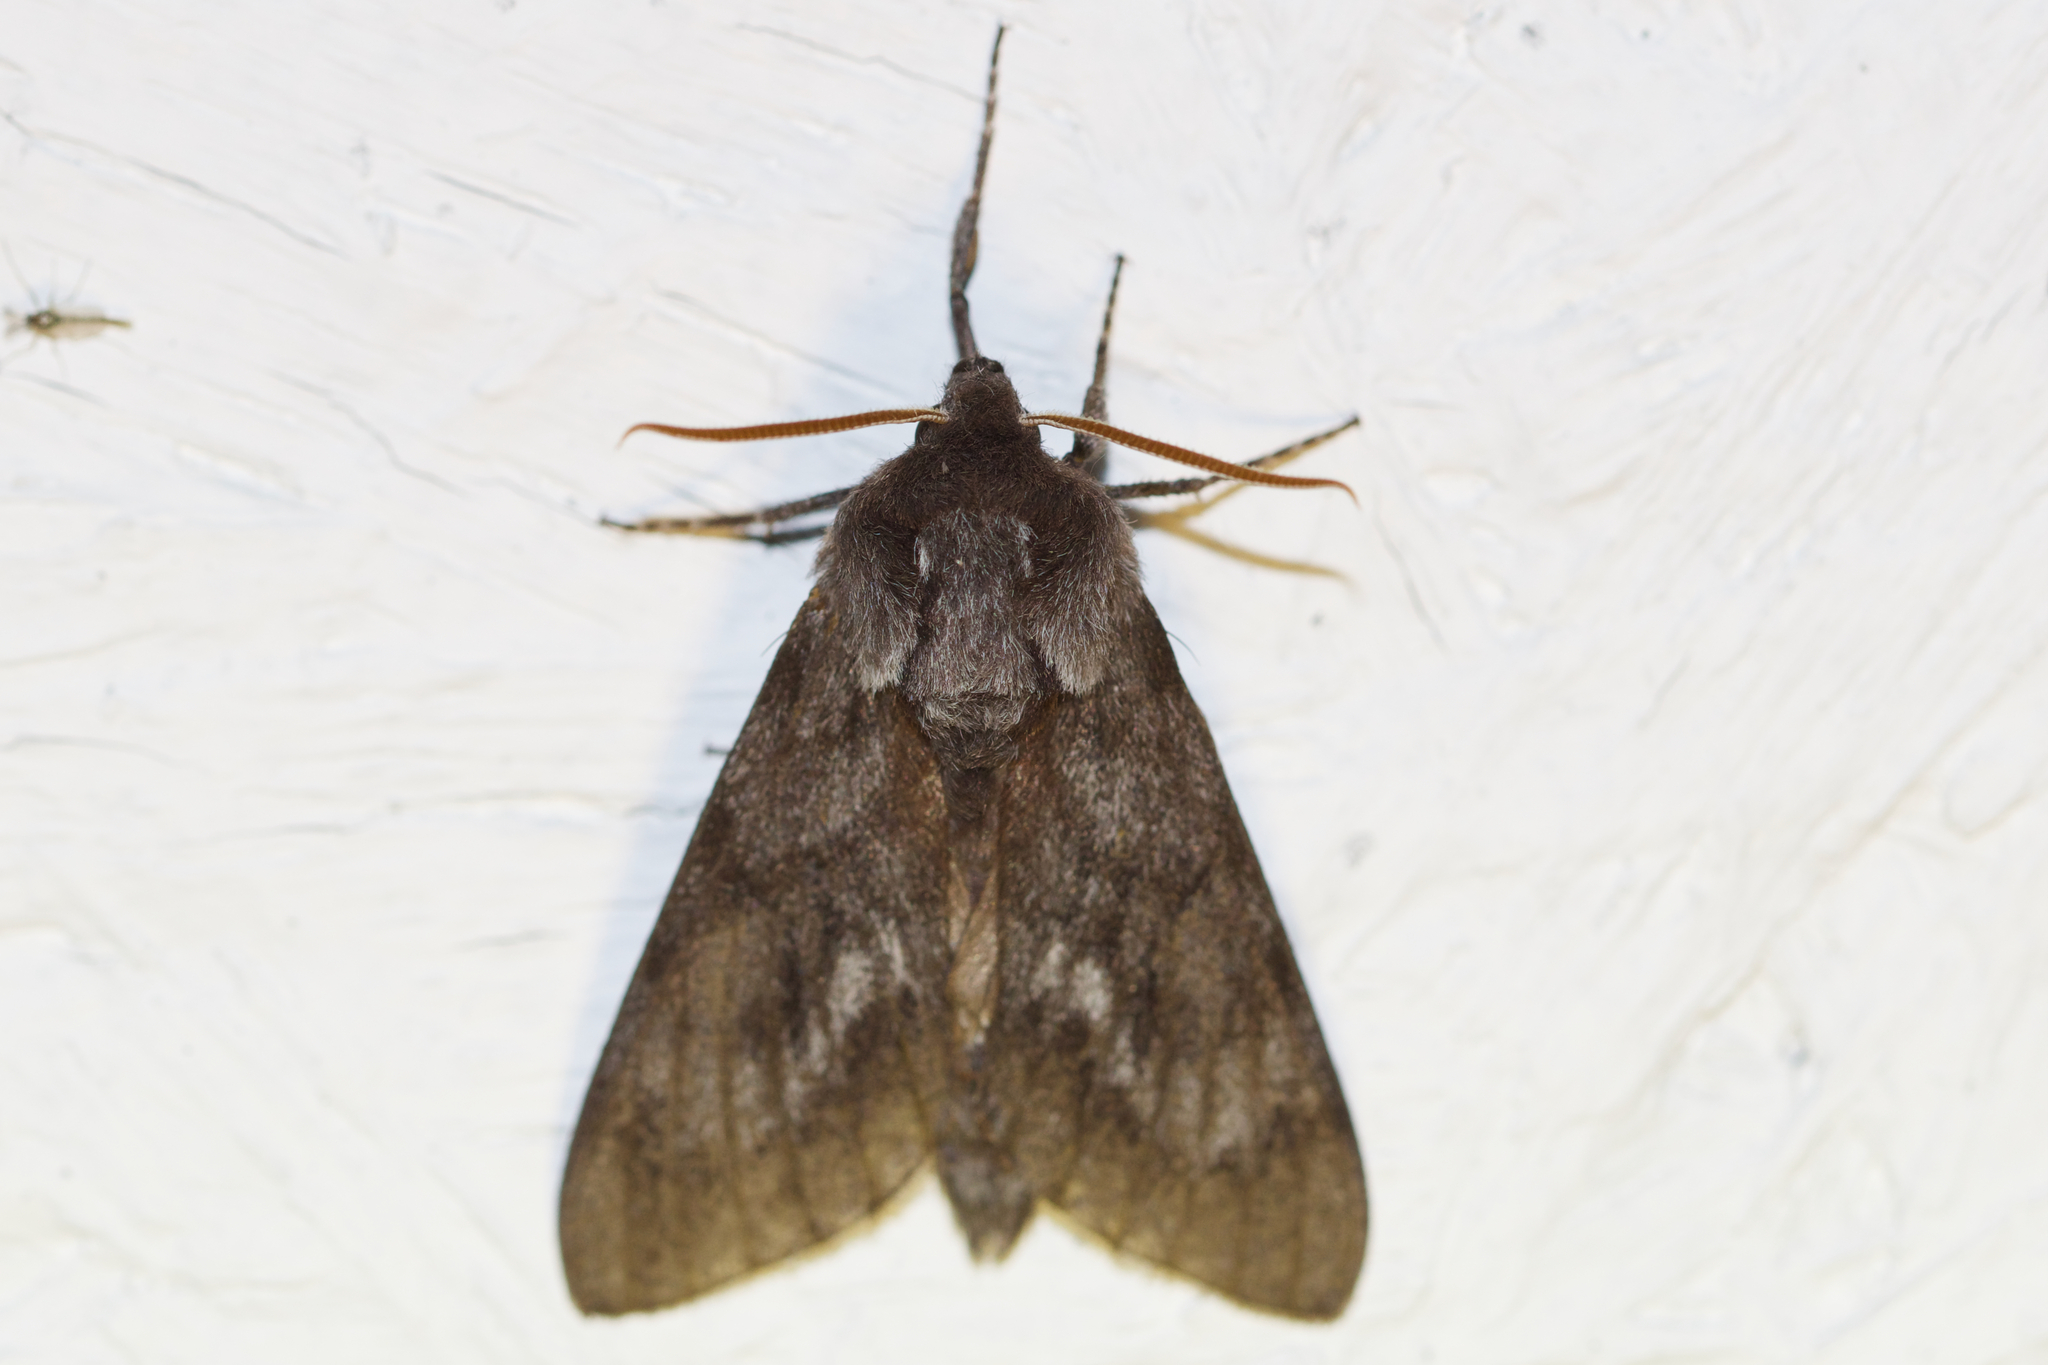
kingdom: Animalia
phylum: Arthropoda
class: Insecta
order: Lepidoptera
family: Sphingidae
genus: Lapara
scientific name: Lapara bombycoides
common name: Northern pine sphinx
